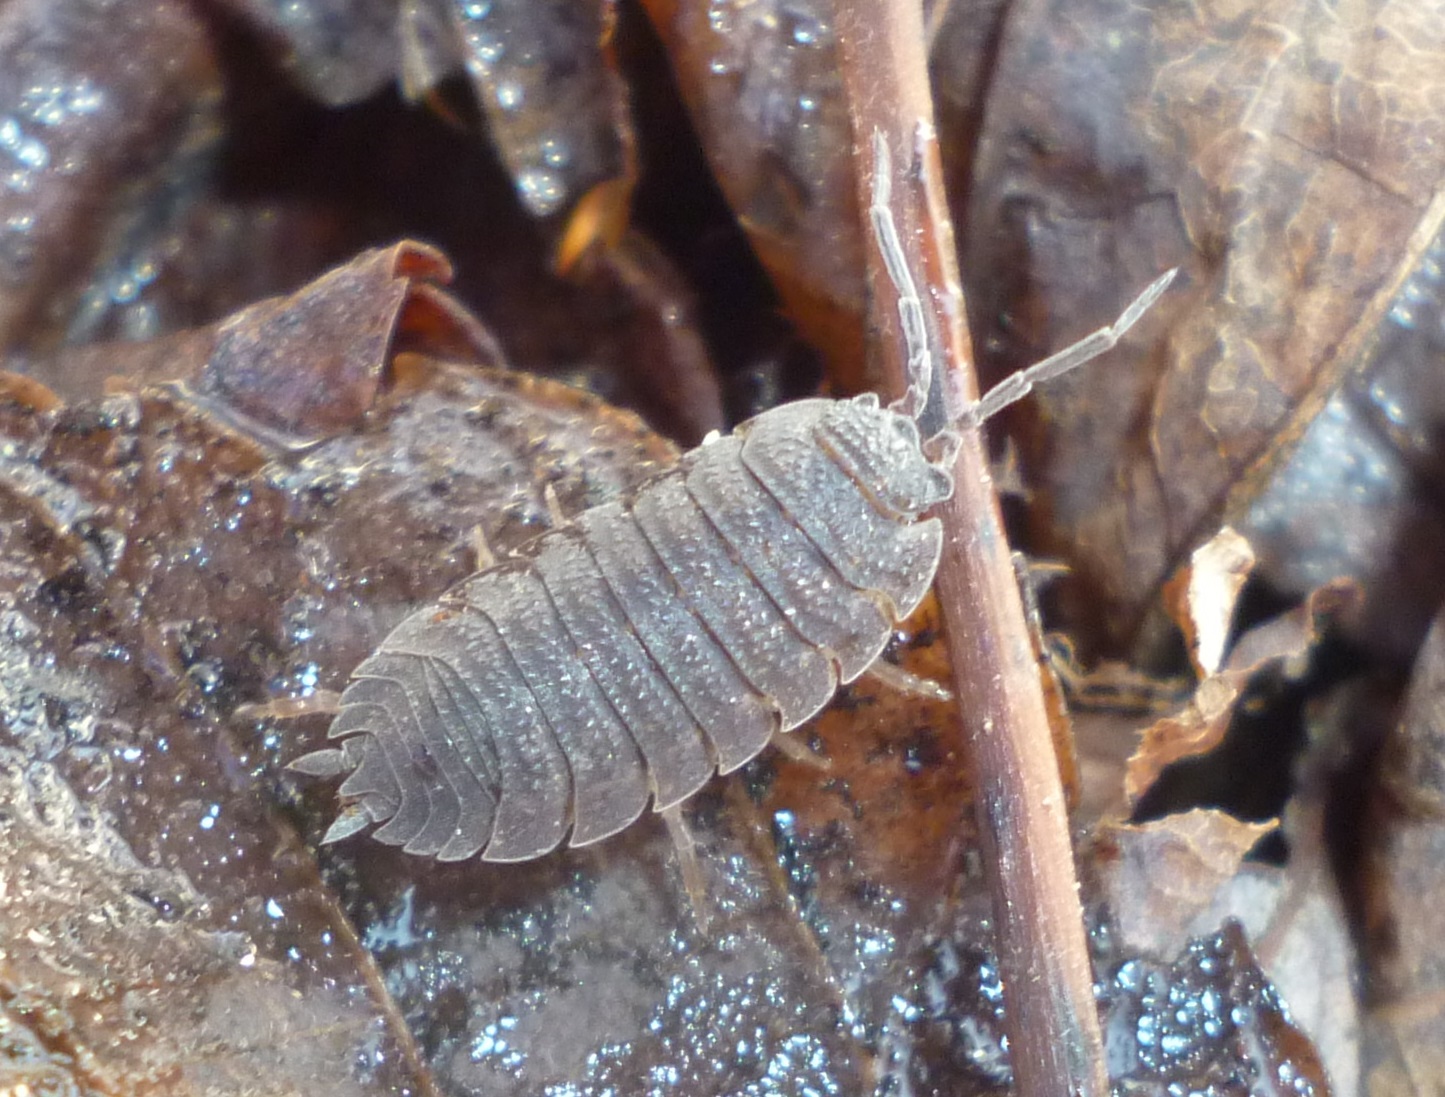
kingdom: Animalia
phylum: Arthropoda
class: Malacostraca
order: Isopoda
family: Porcellionidae
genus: Porcellio
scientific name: Porcellio scaber
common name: Common rough woodlouse
